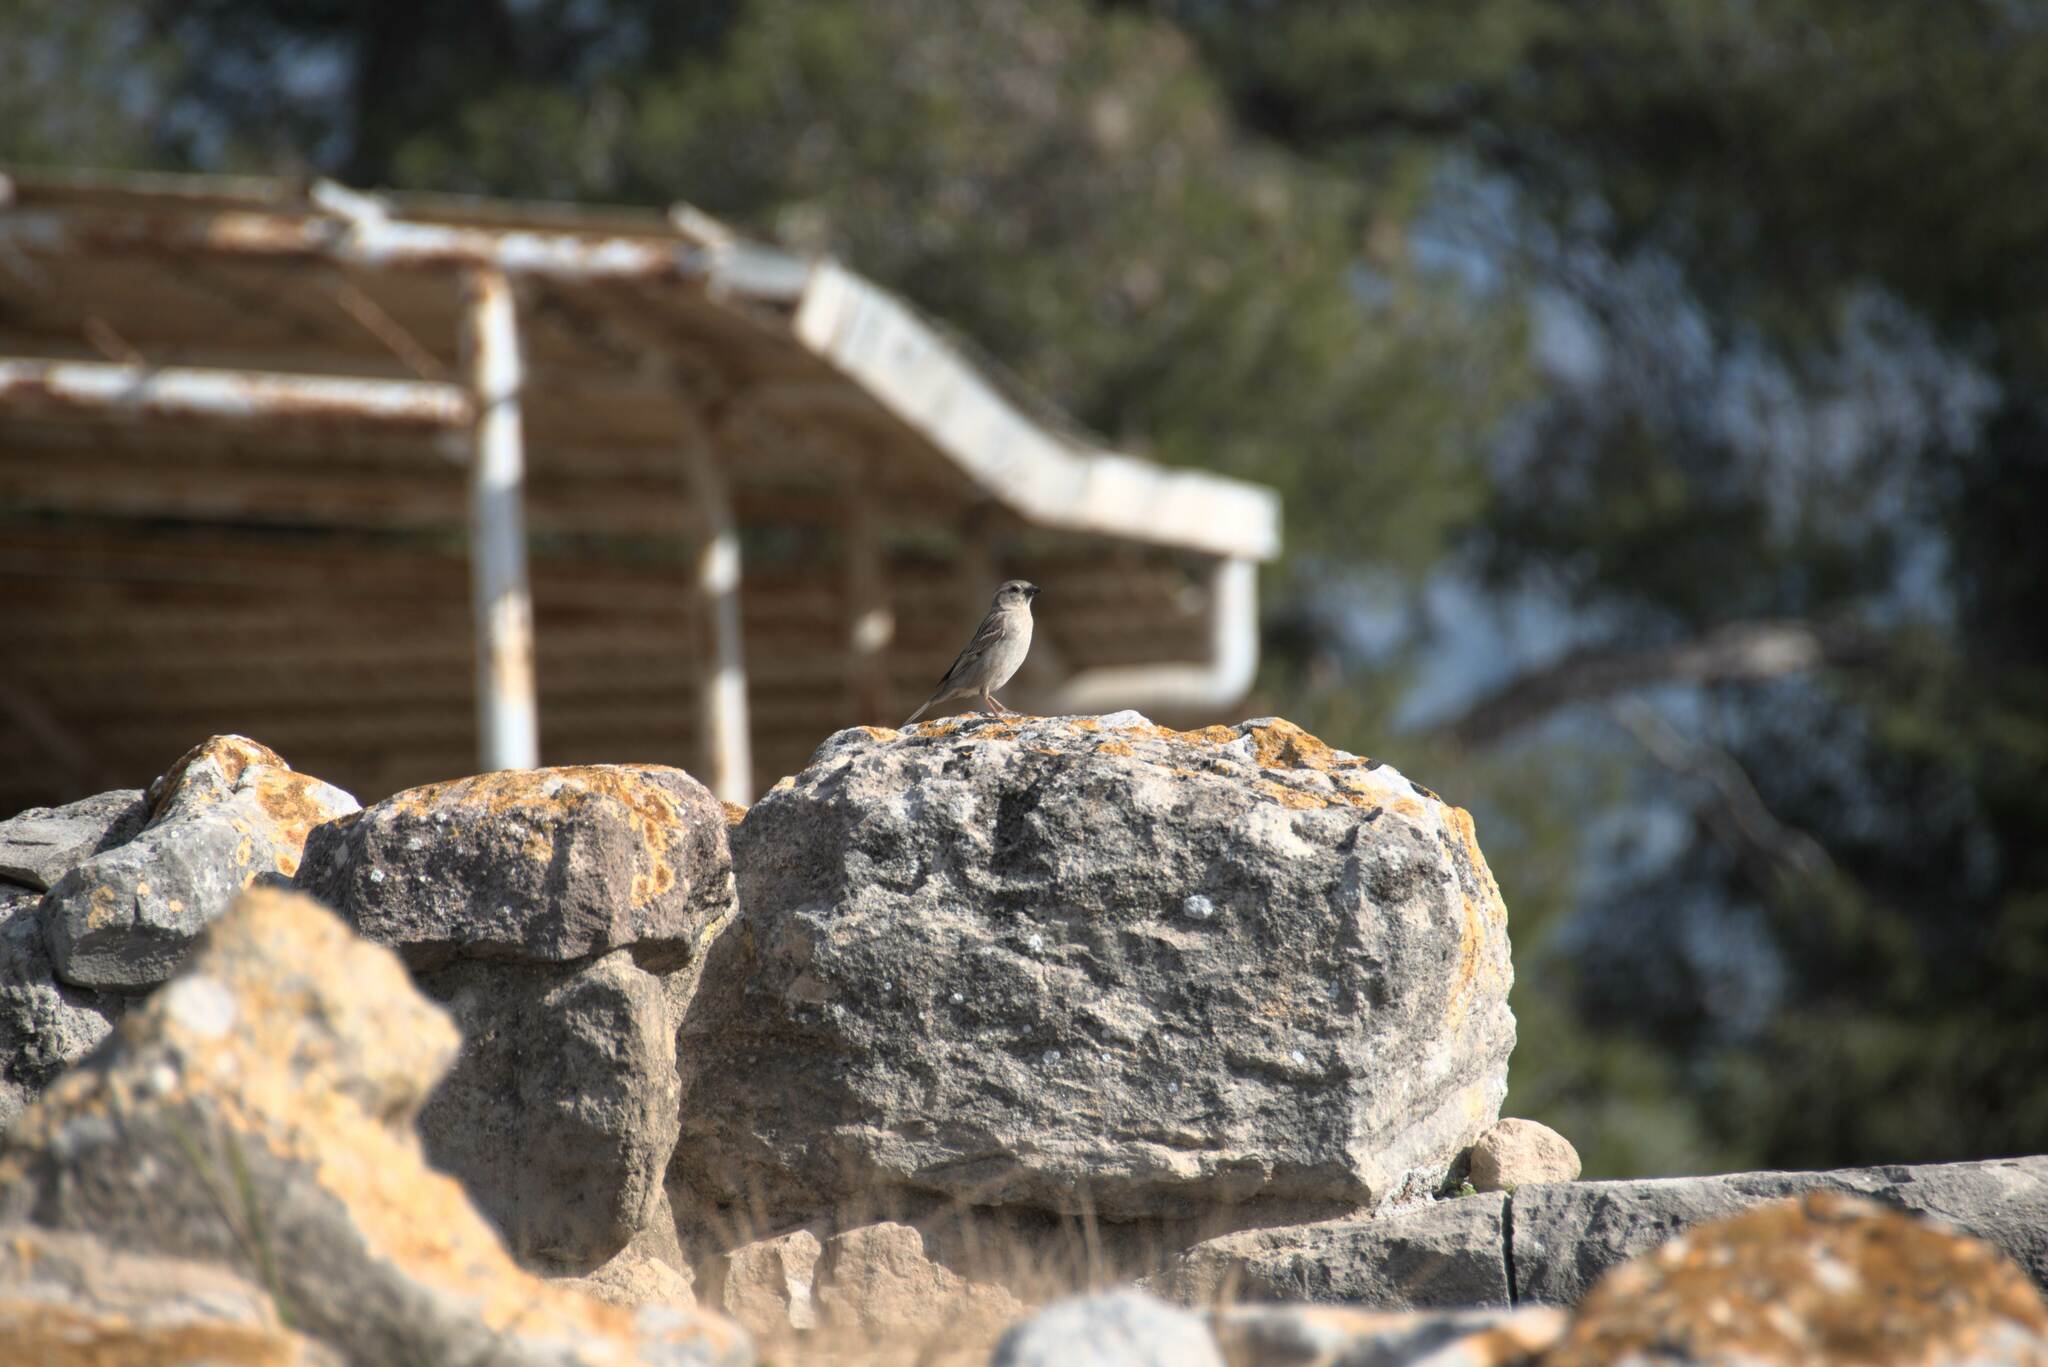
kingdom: Animalia
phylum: Chordata
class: Aves
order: Passeriformes
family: Passeridae
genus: Passer
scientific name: Passer
